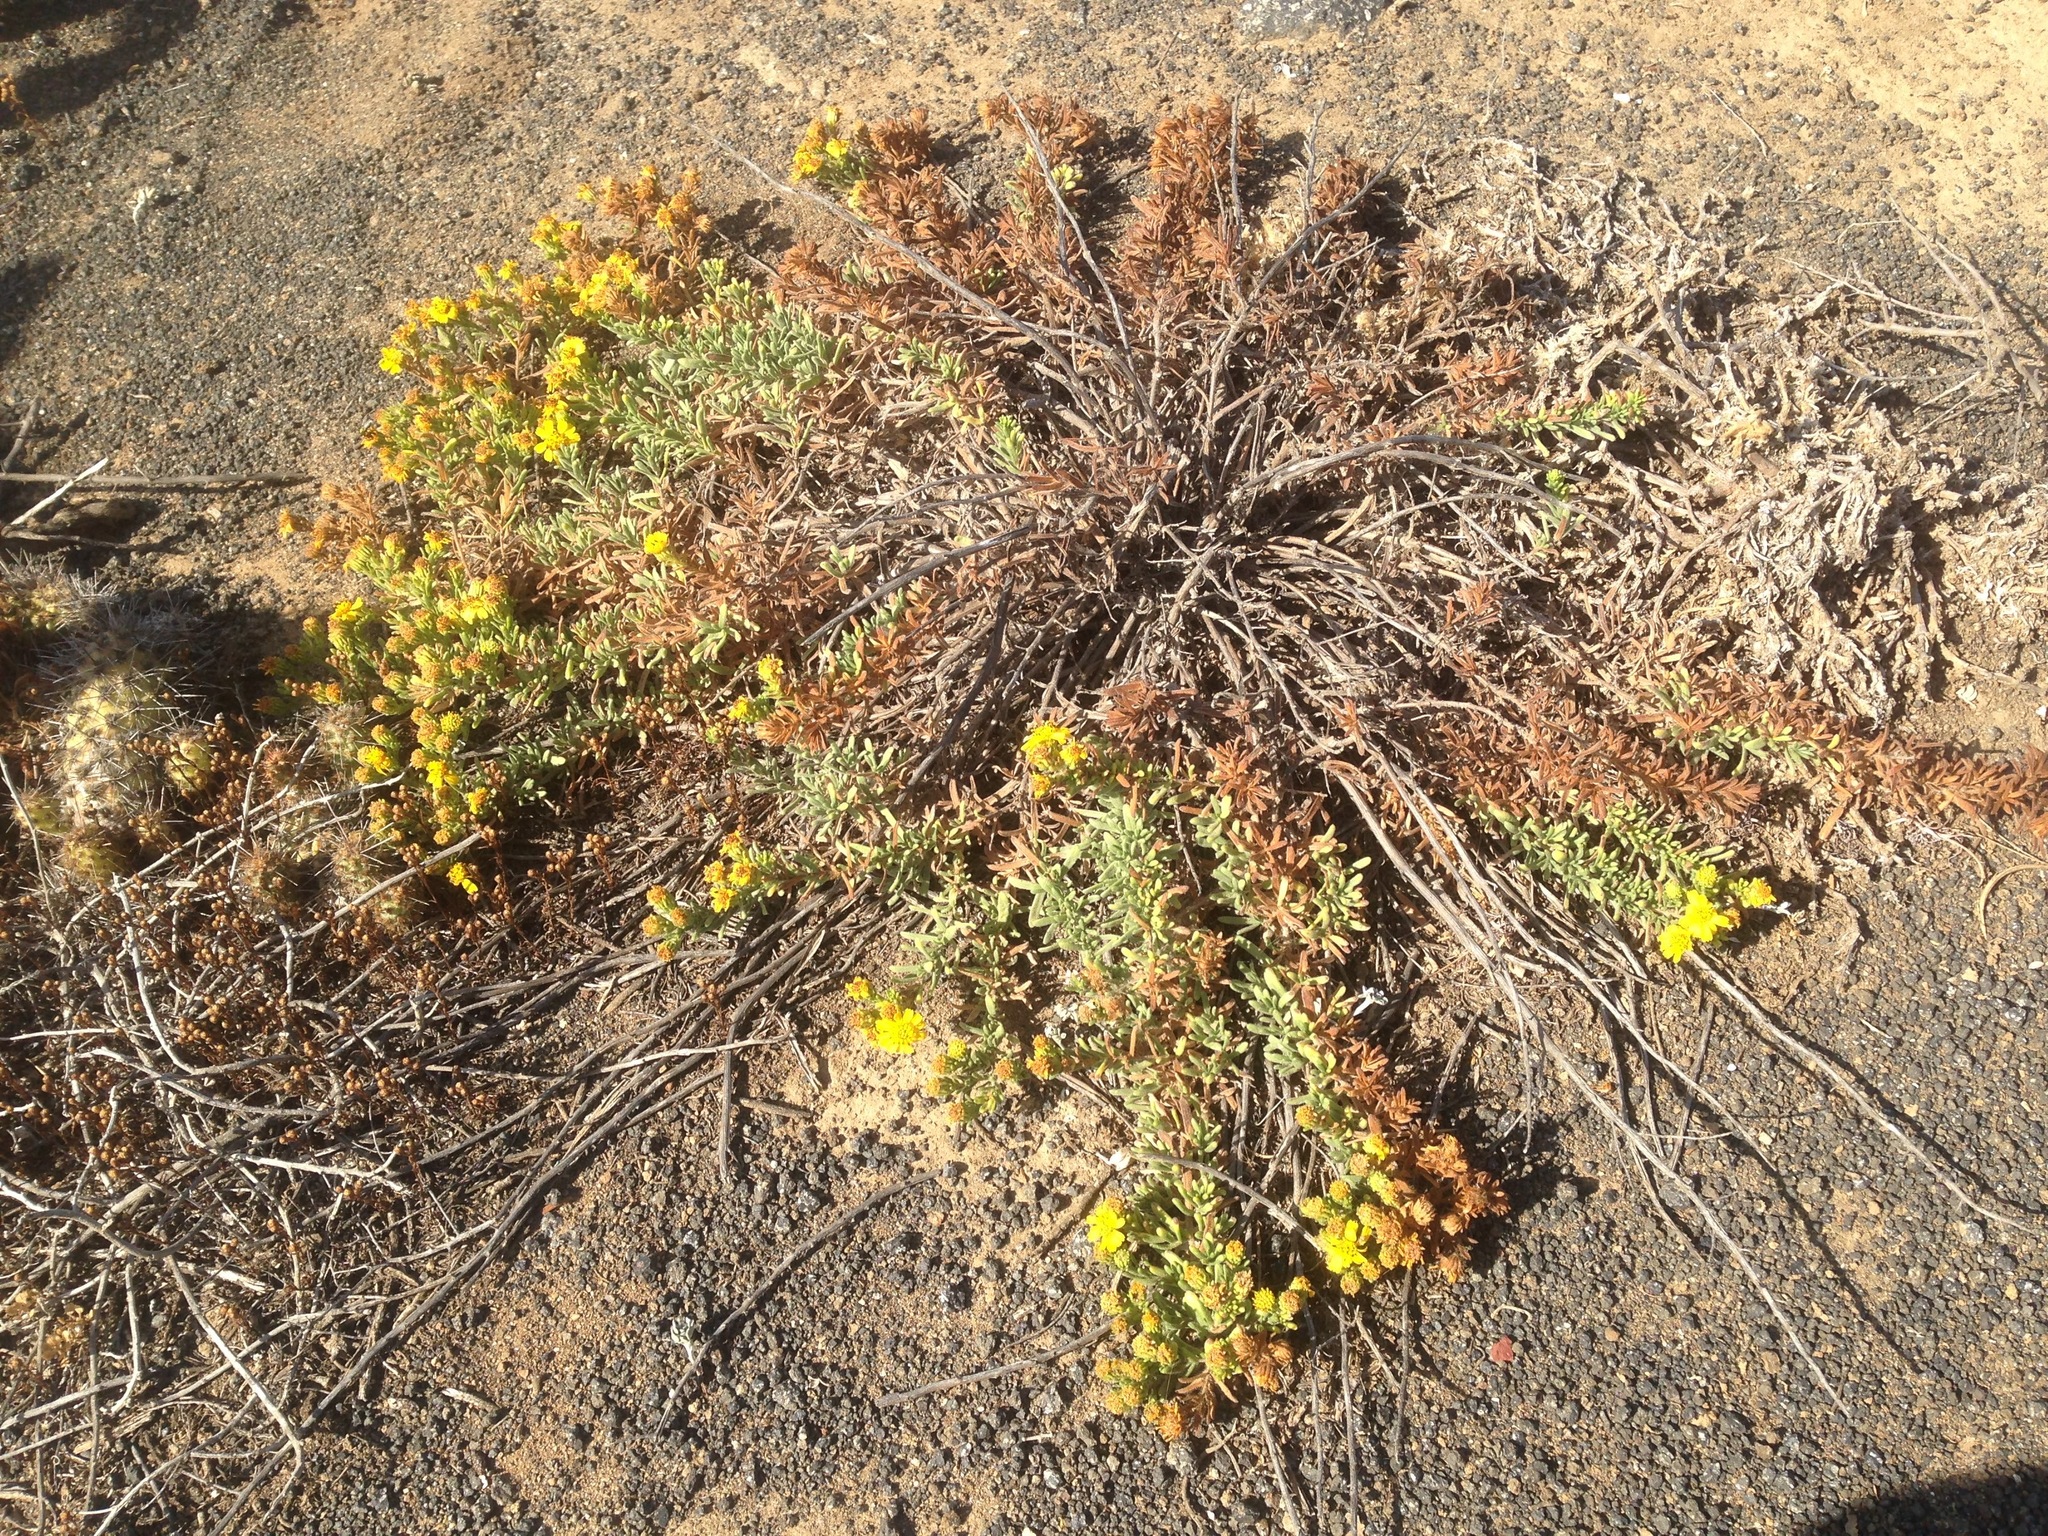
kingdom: Plantae
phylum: Tracheophyta
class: Magnoliopsida
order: Asterales
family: Asteraceae
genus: Deinandra
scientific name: Deinandra clementina
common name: Island tarplant
